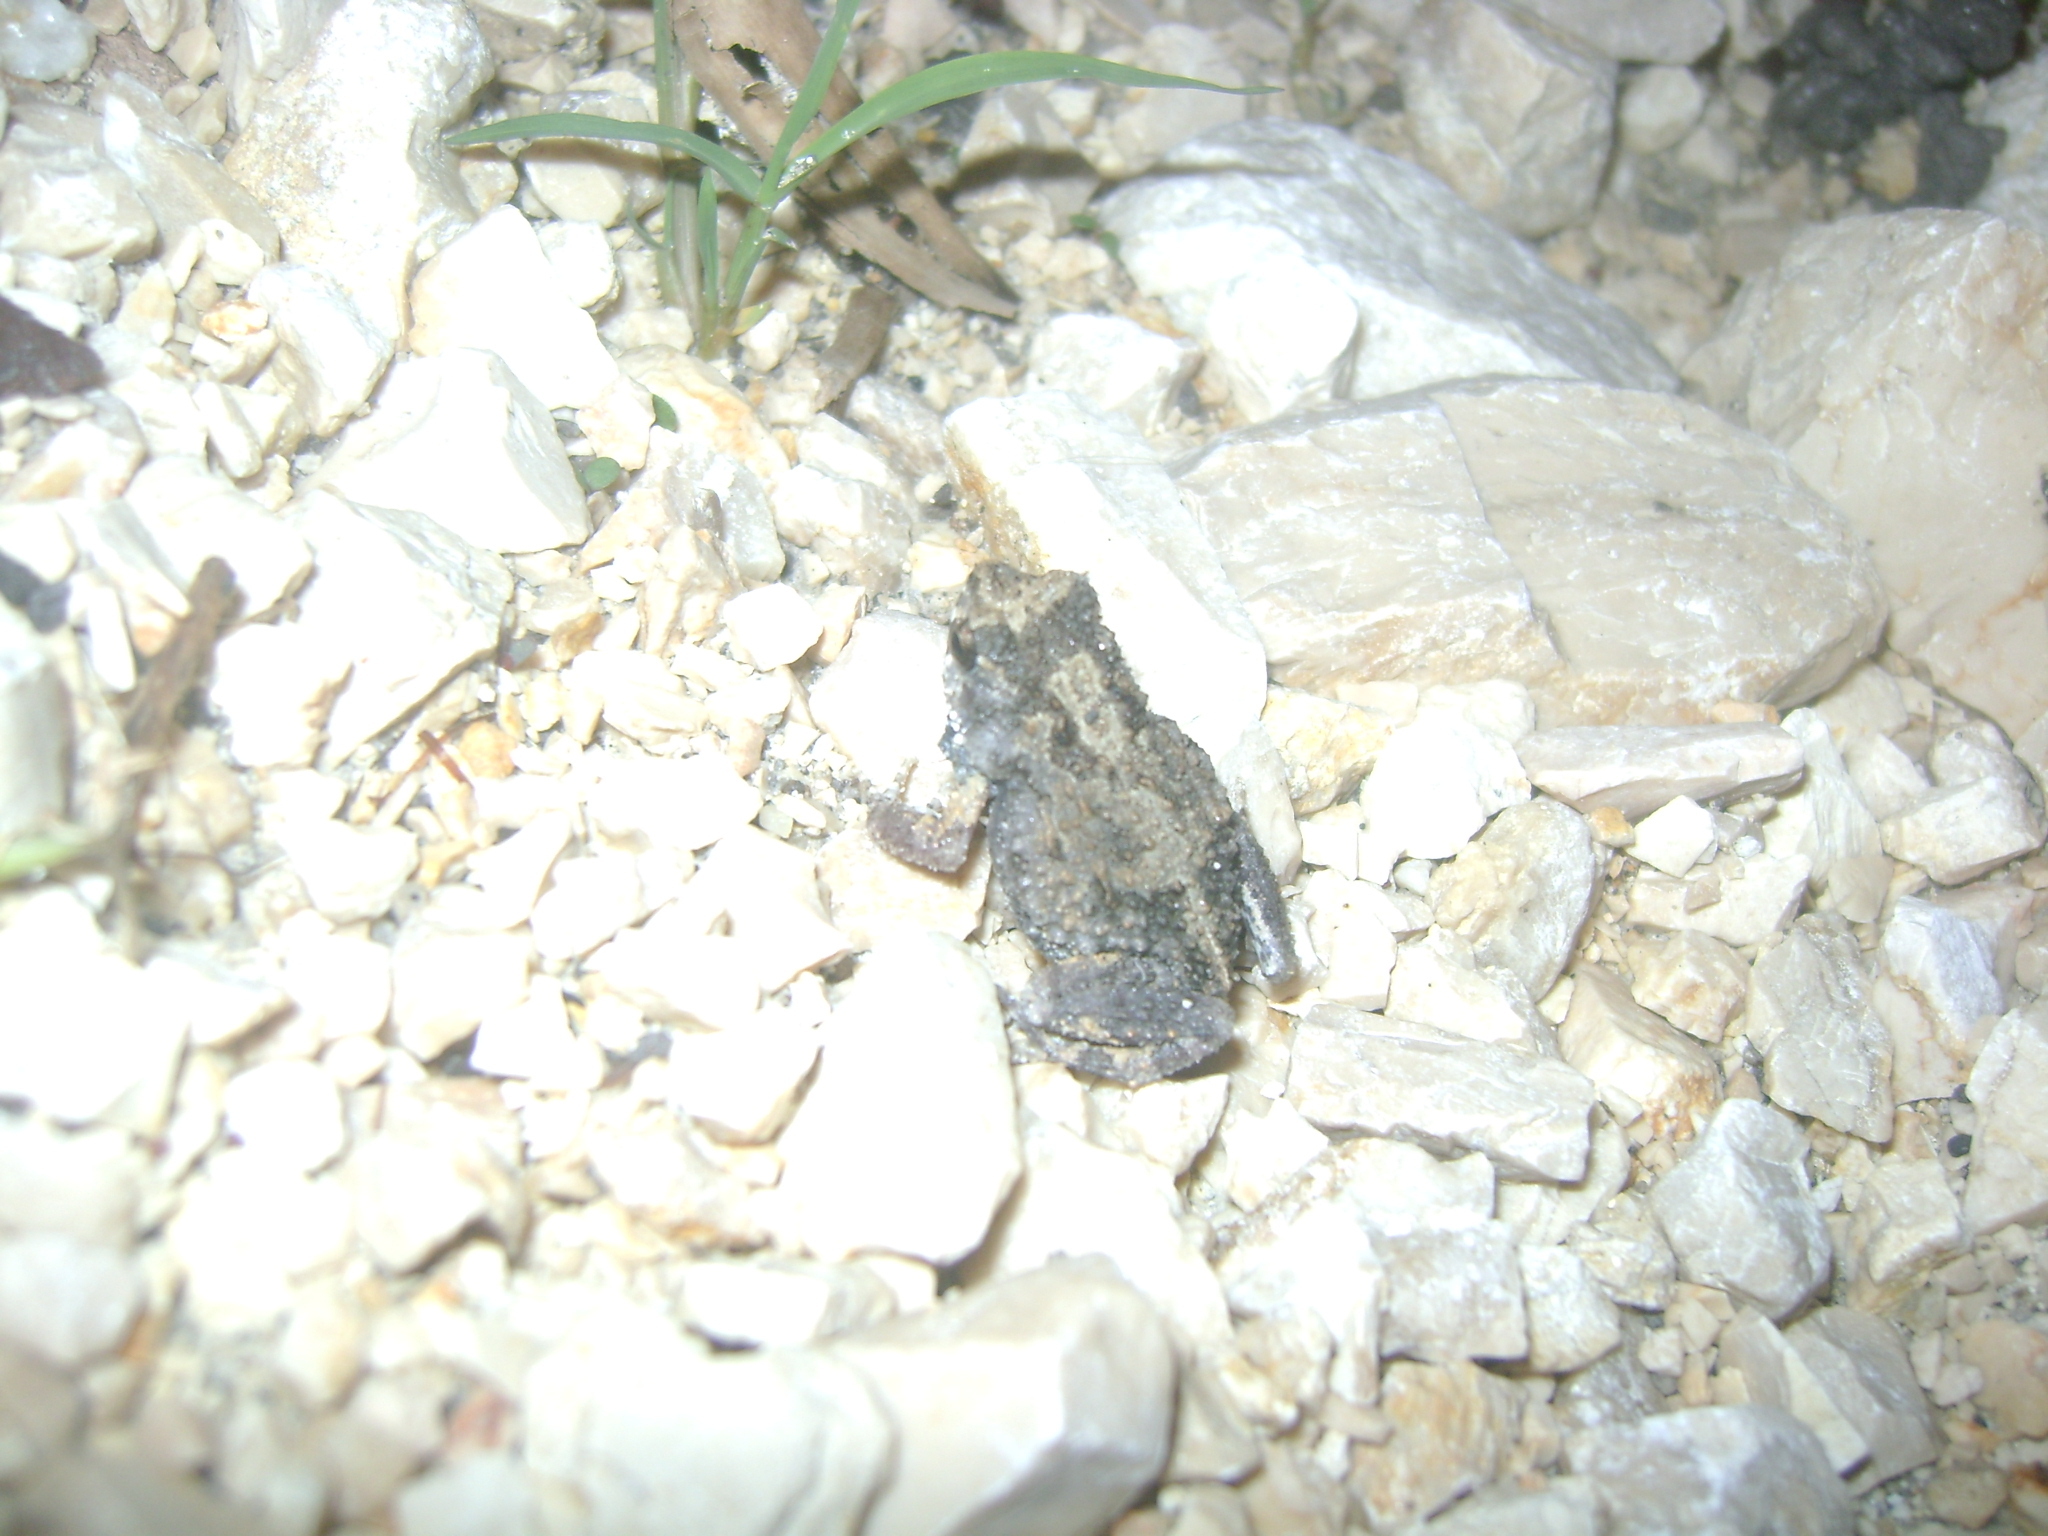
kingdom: Animalia
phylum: Chordata
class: Amphibia
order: Anura
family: Leptodactylidae
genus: Engystomops
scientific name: Engystomops pustulosus
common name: Tungara frog
